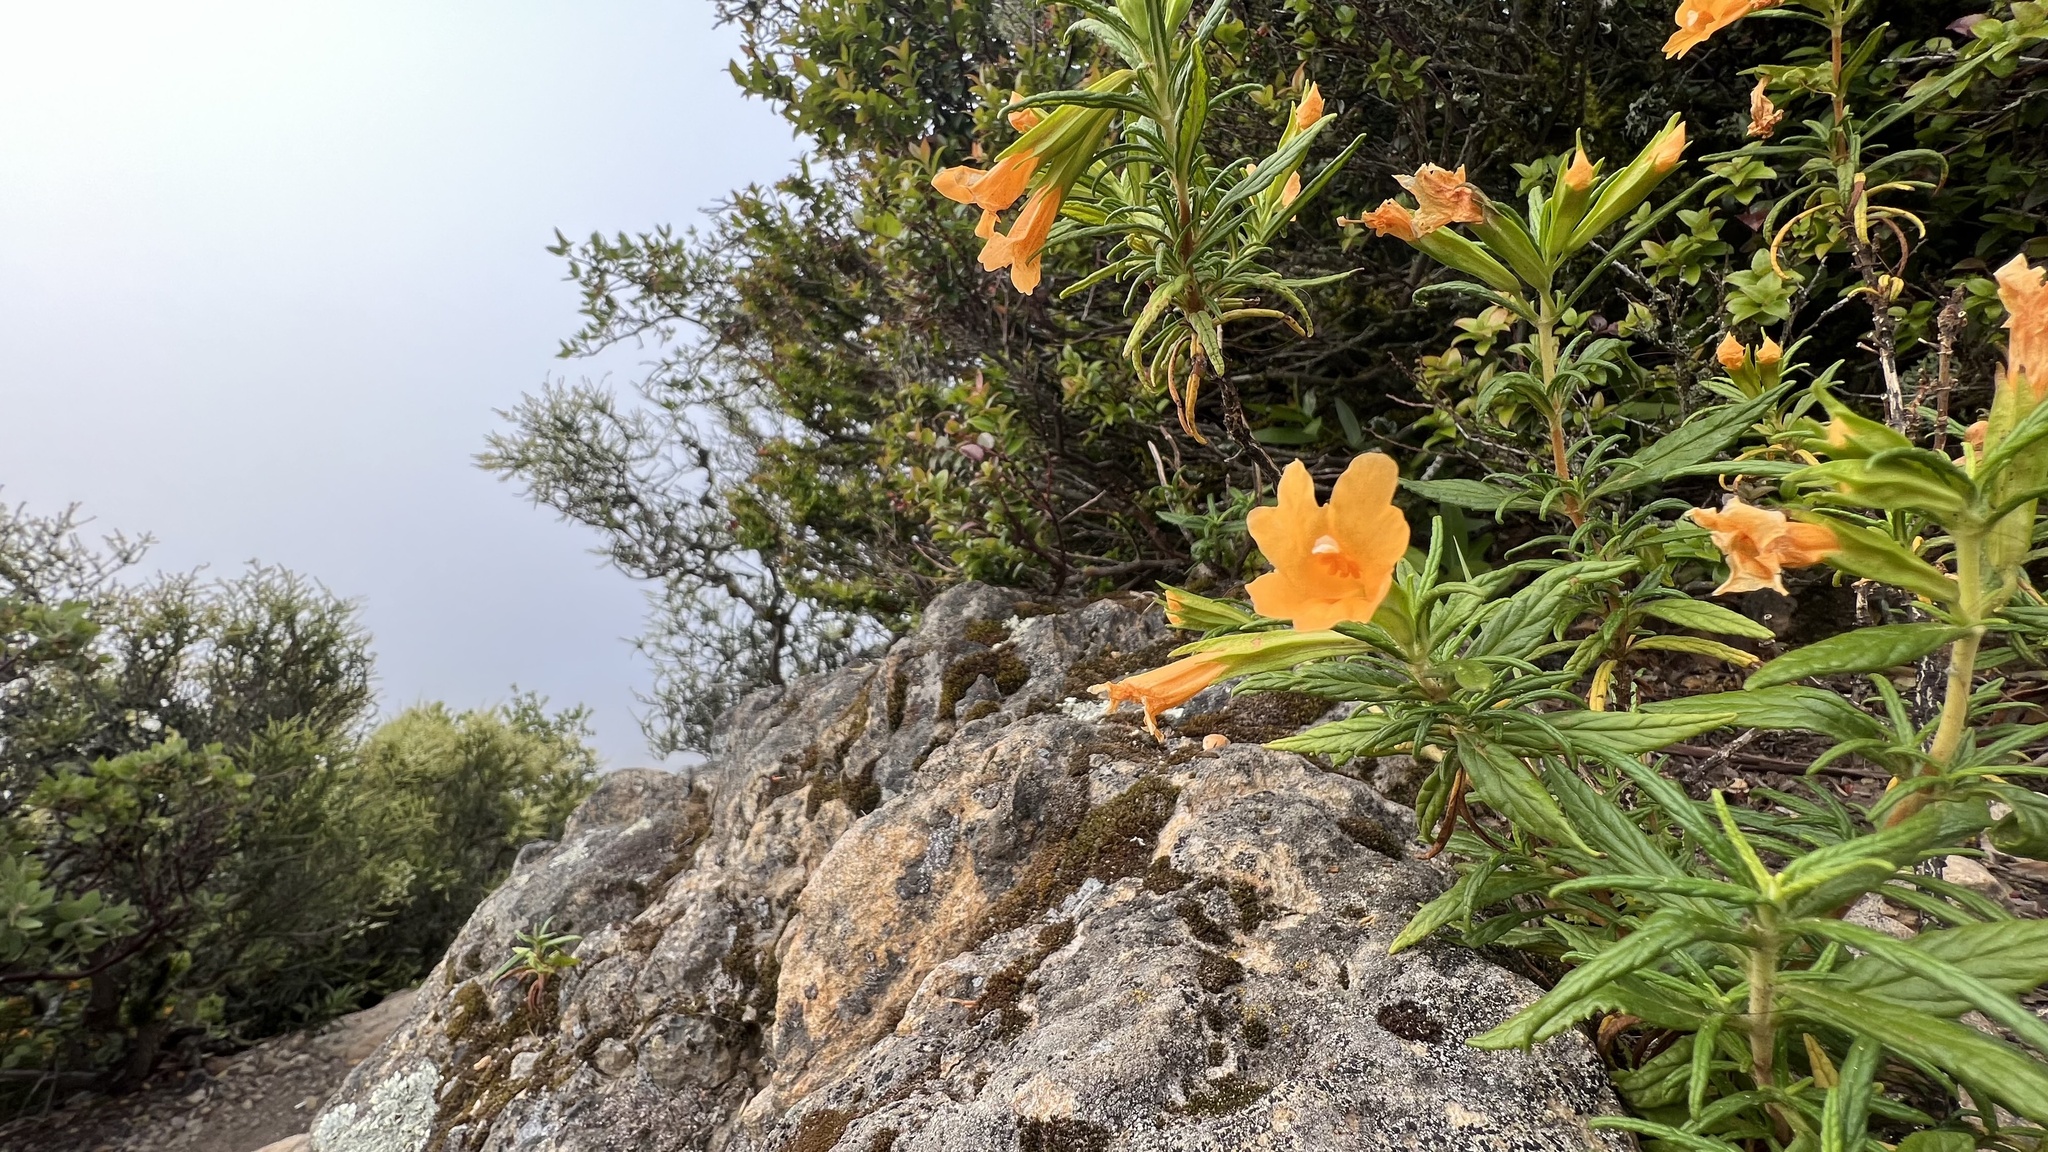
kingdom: Plantae
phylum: Tracheophyta
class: Magnoliopsida
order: Lamiales
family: Phrymaceae
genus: Diplacus
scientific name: Diplacus aurantiacus
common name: Bush monkey-flower
